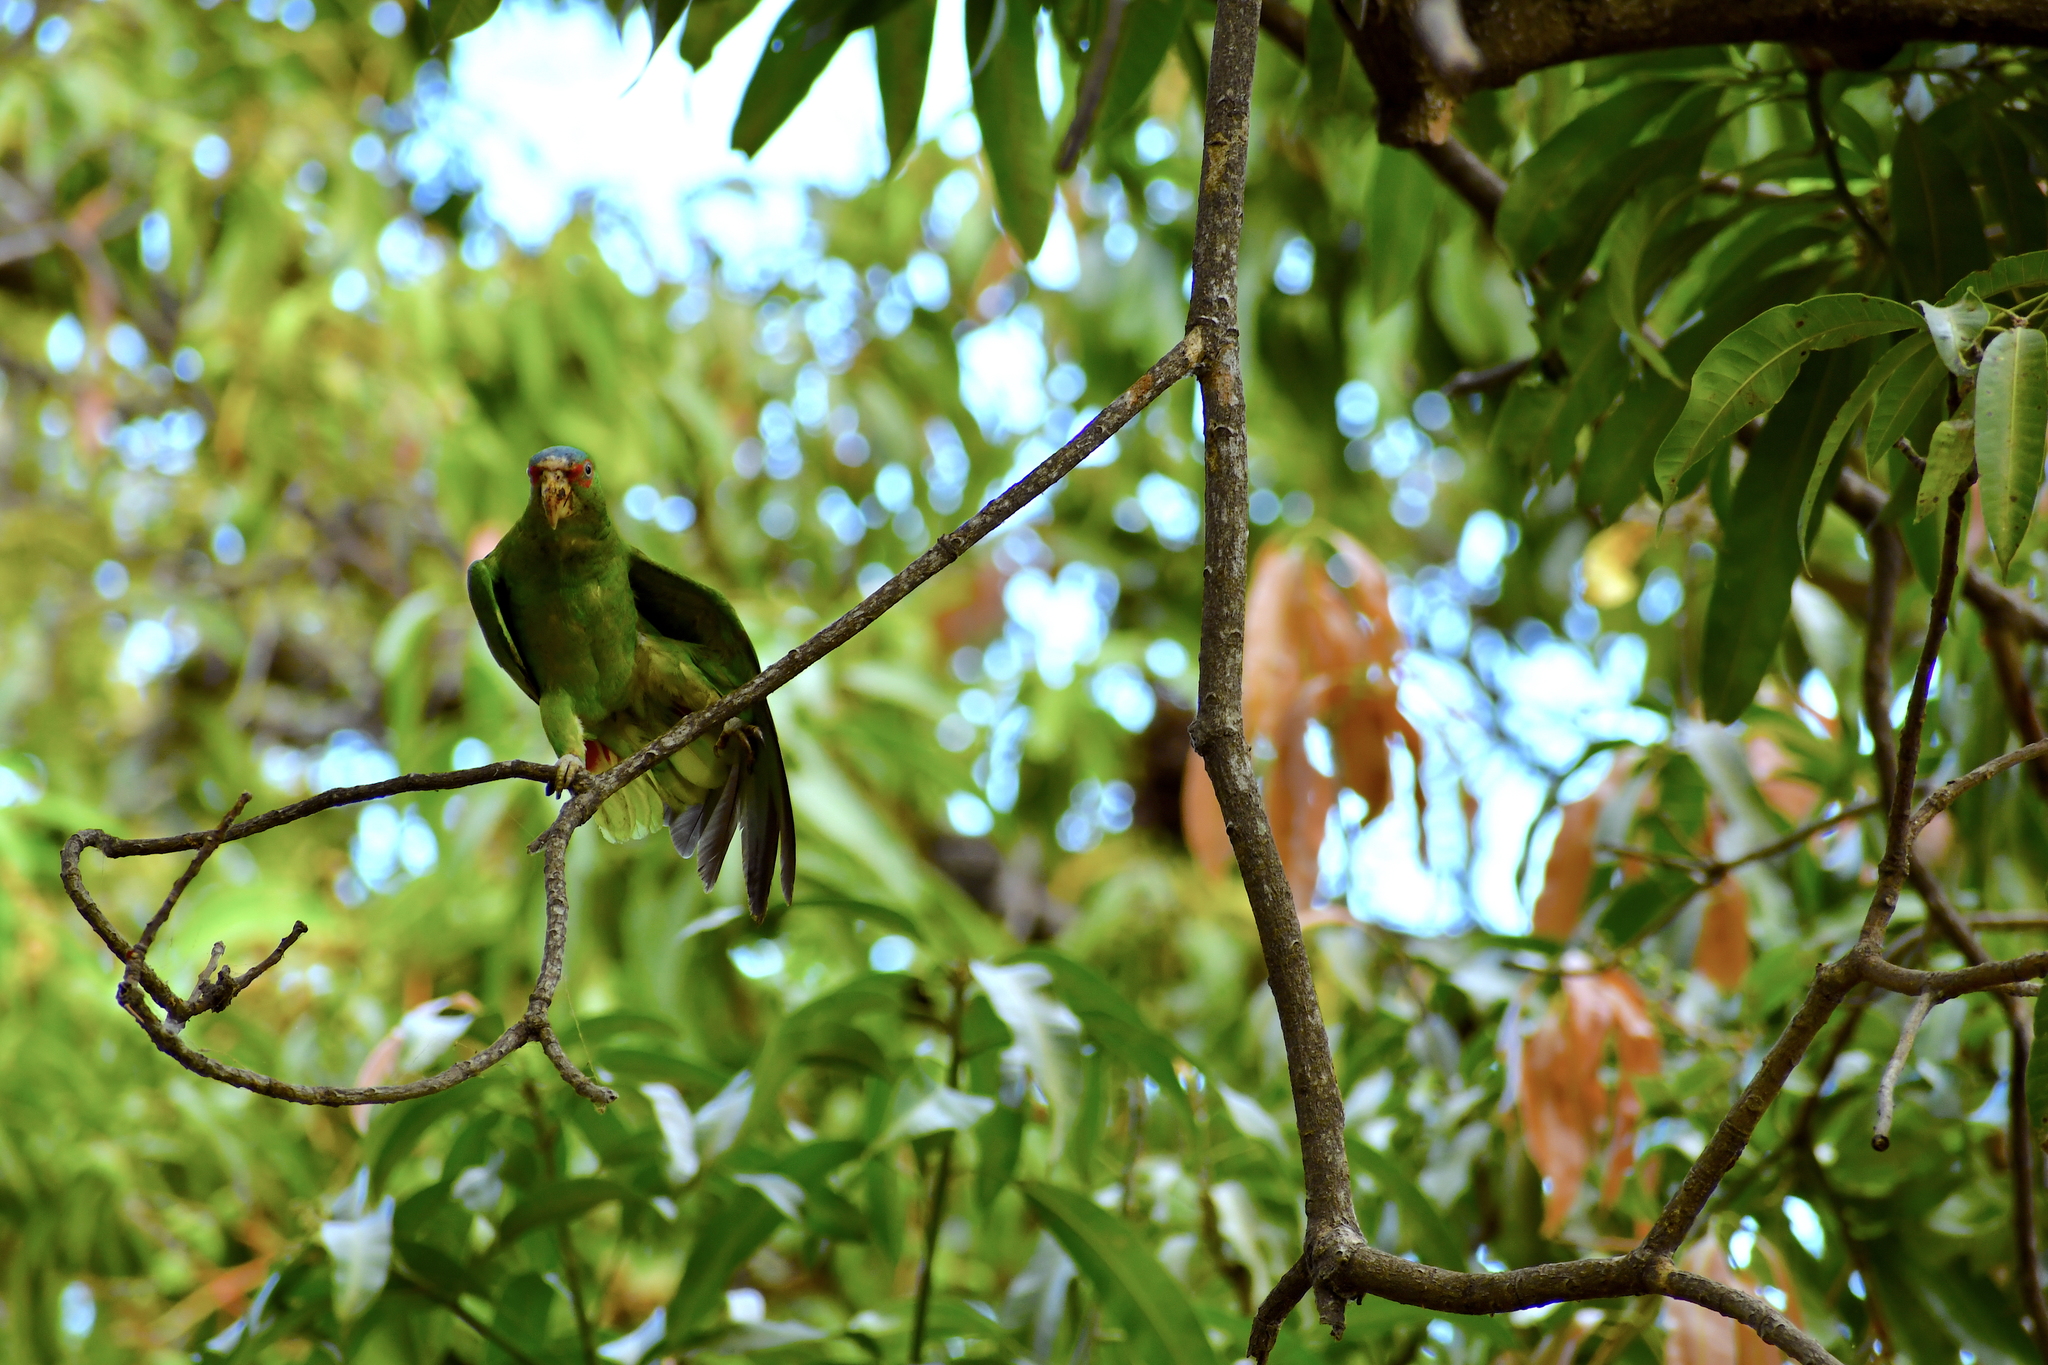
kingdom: Animalia
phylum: Chordata
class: Aves
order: Psittaciformes
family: Psittacidae
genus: Amazona
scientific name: Amazona albifrons
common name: White-fronted amazon
